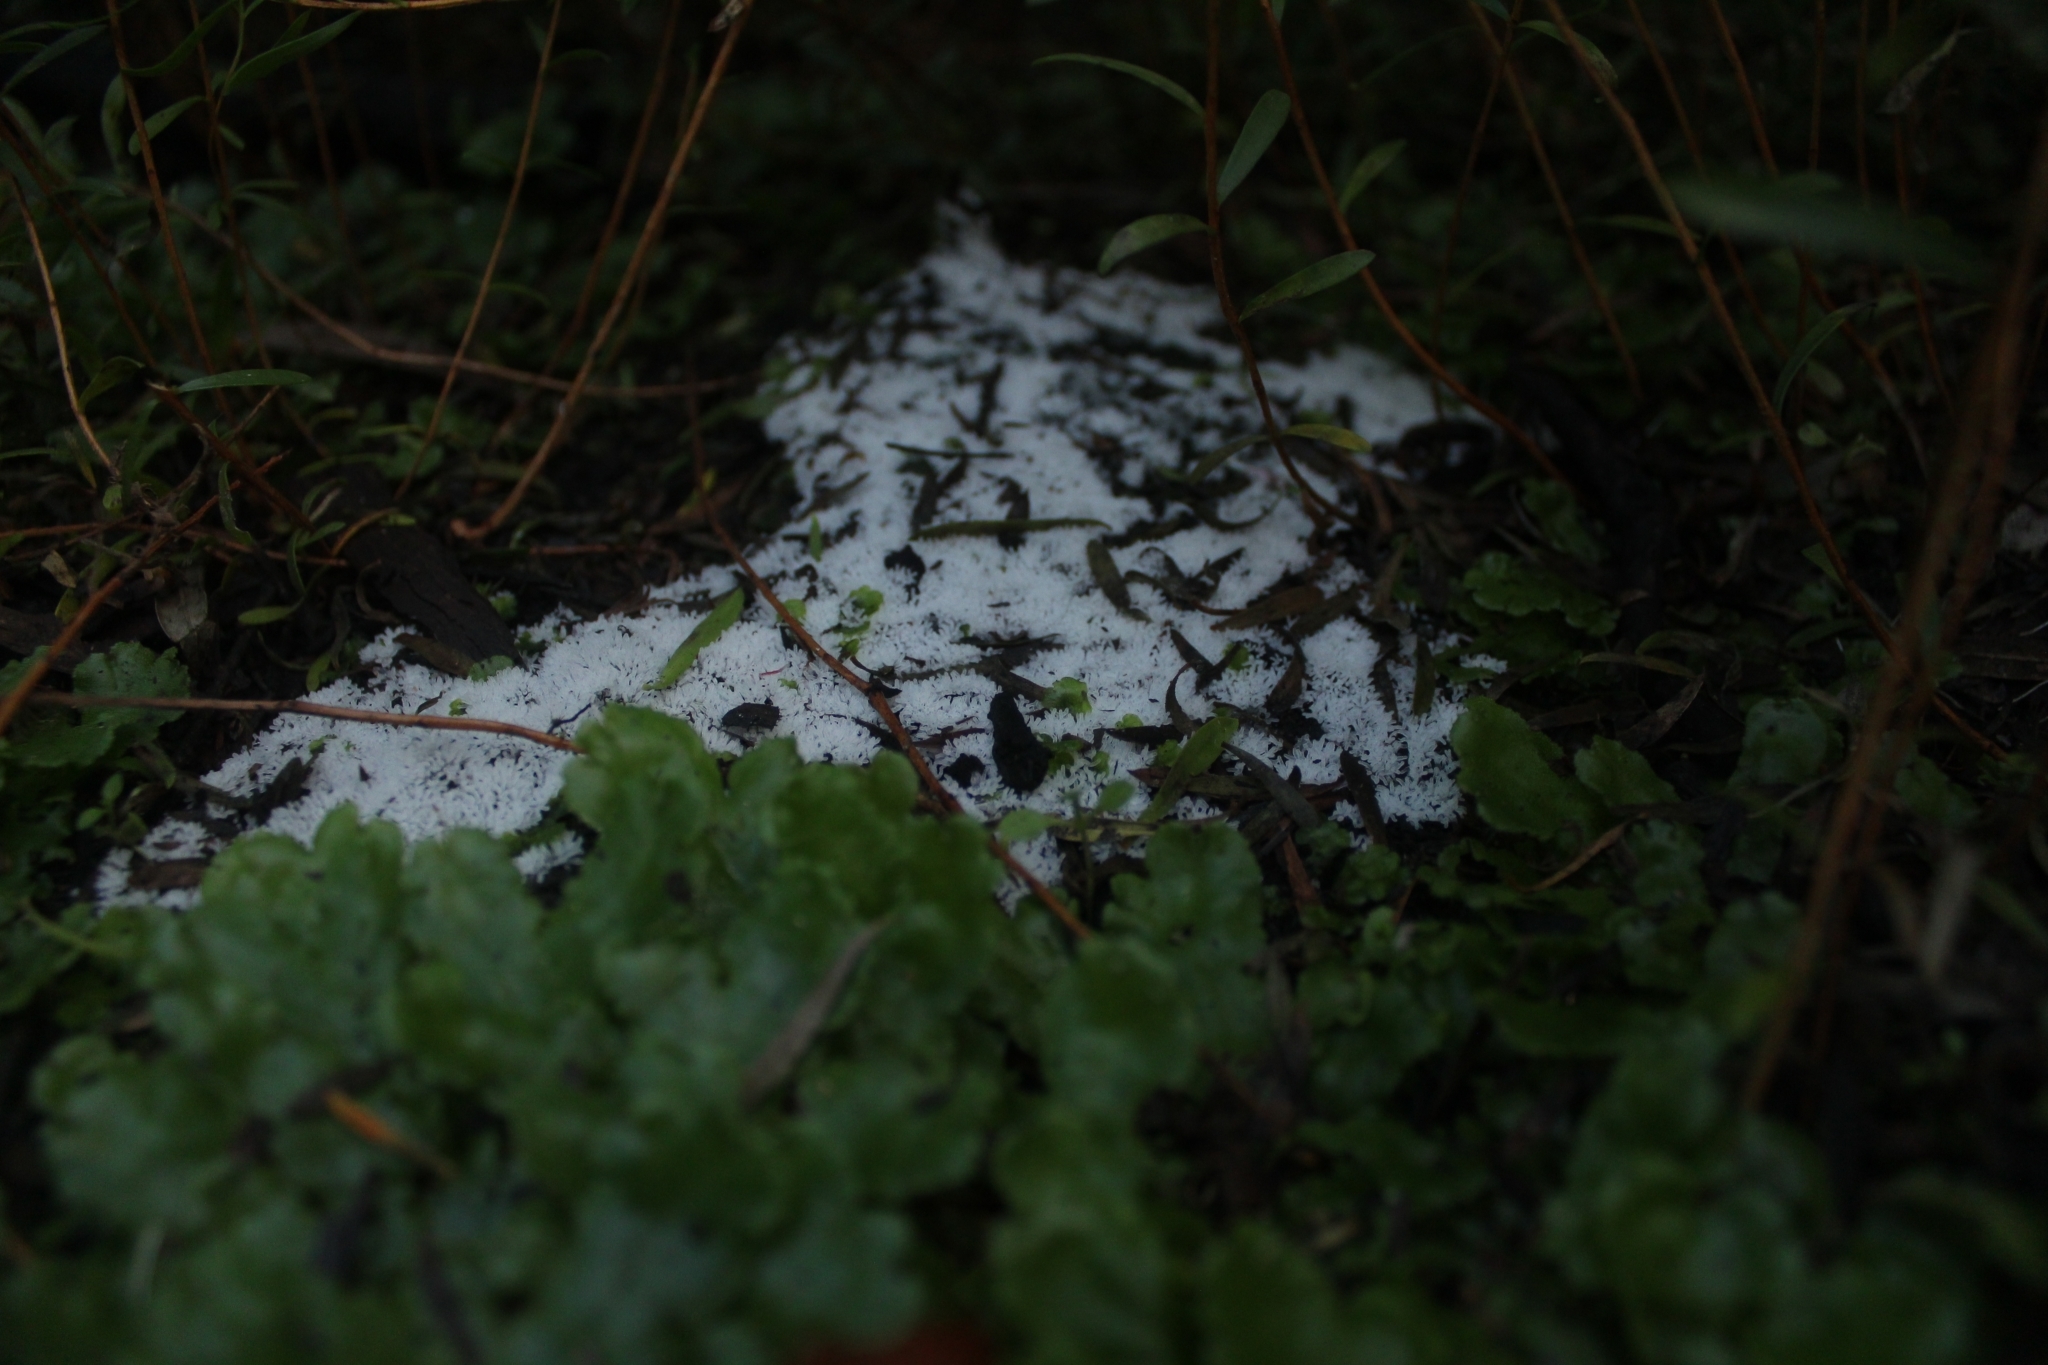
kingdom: Protozoa
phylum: Mycetozoa
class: Protosteliomycetes
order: Ceratiomyxales
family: Ceratiomyxaceae
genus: Ceratiomyxa
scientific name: Ceratiomyxa fruticulosa
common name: Honeycomb coral slime mold
